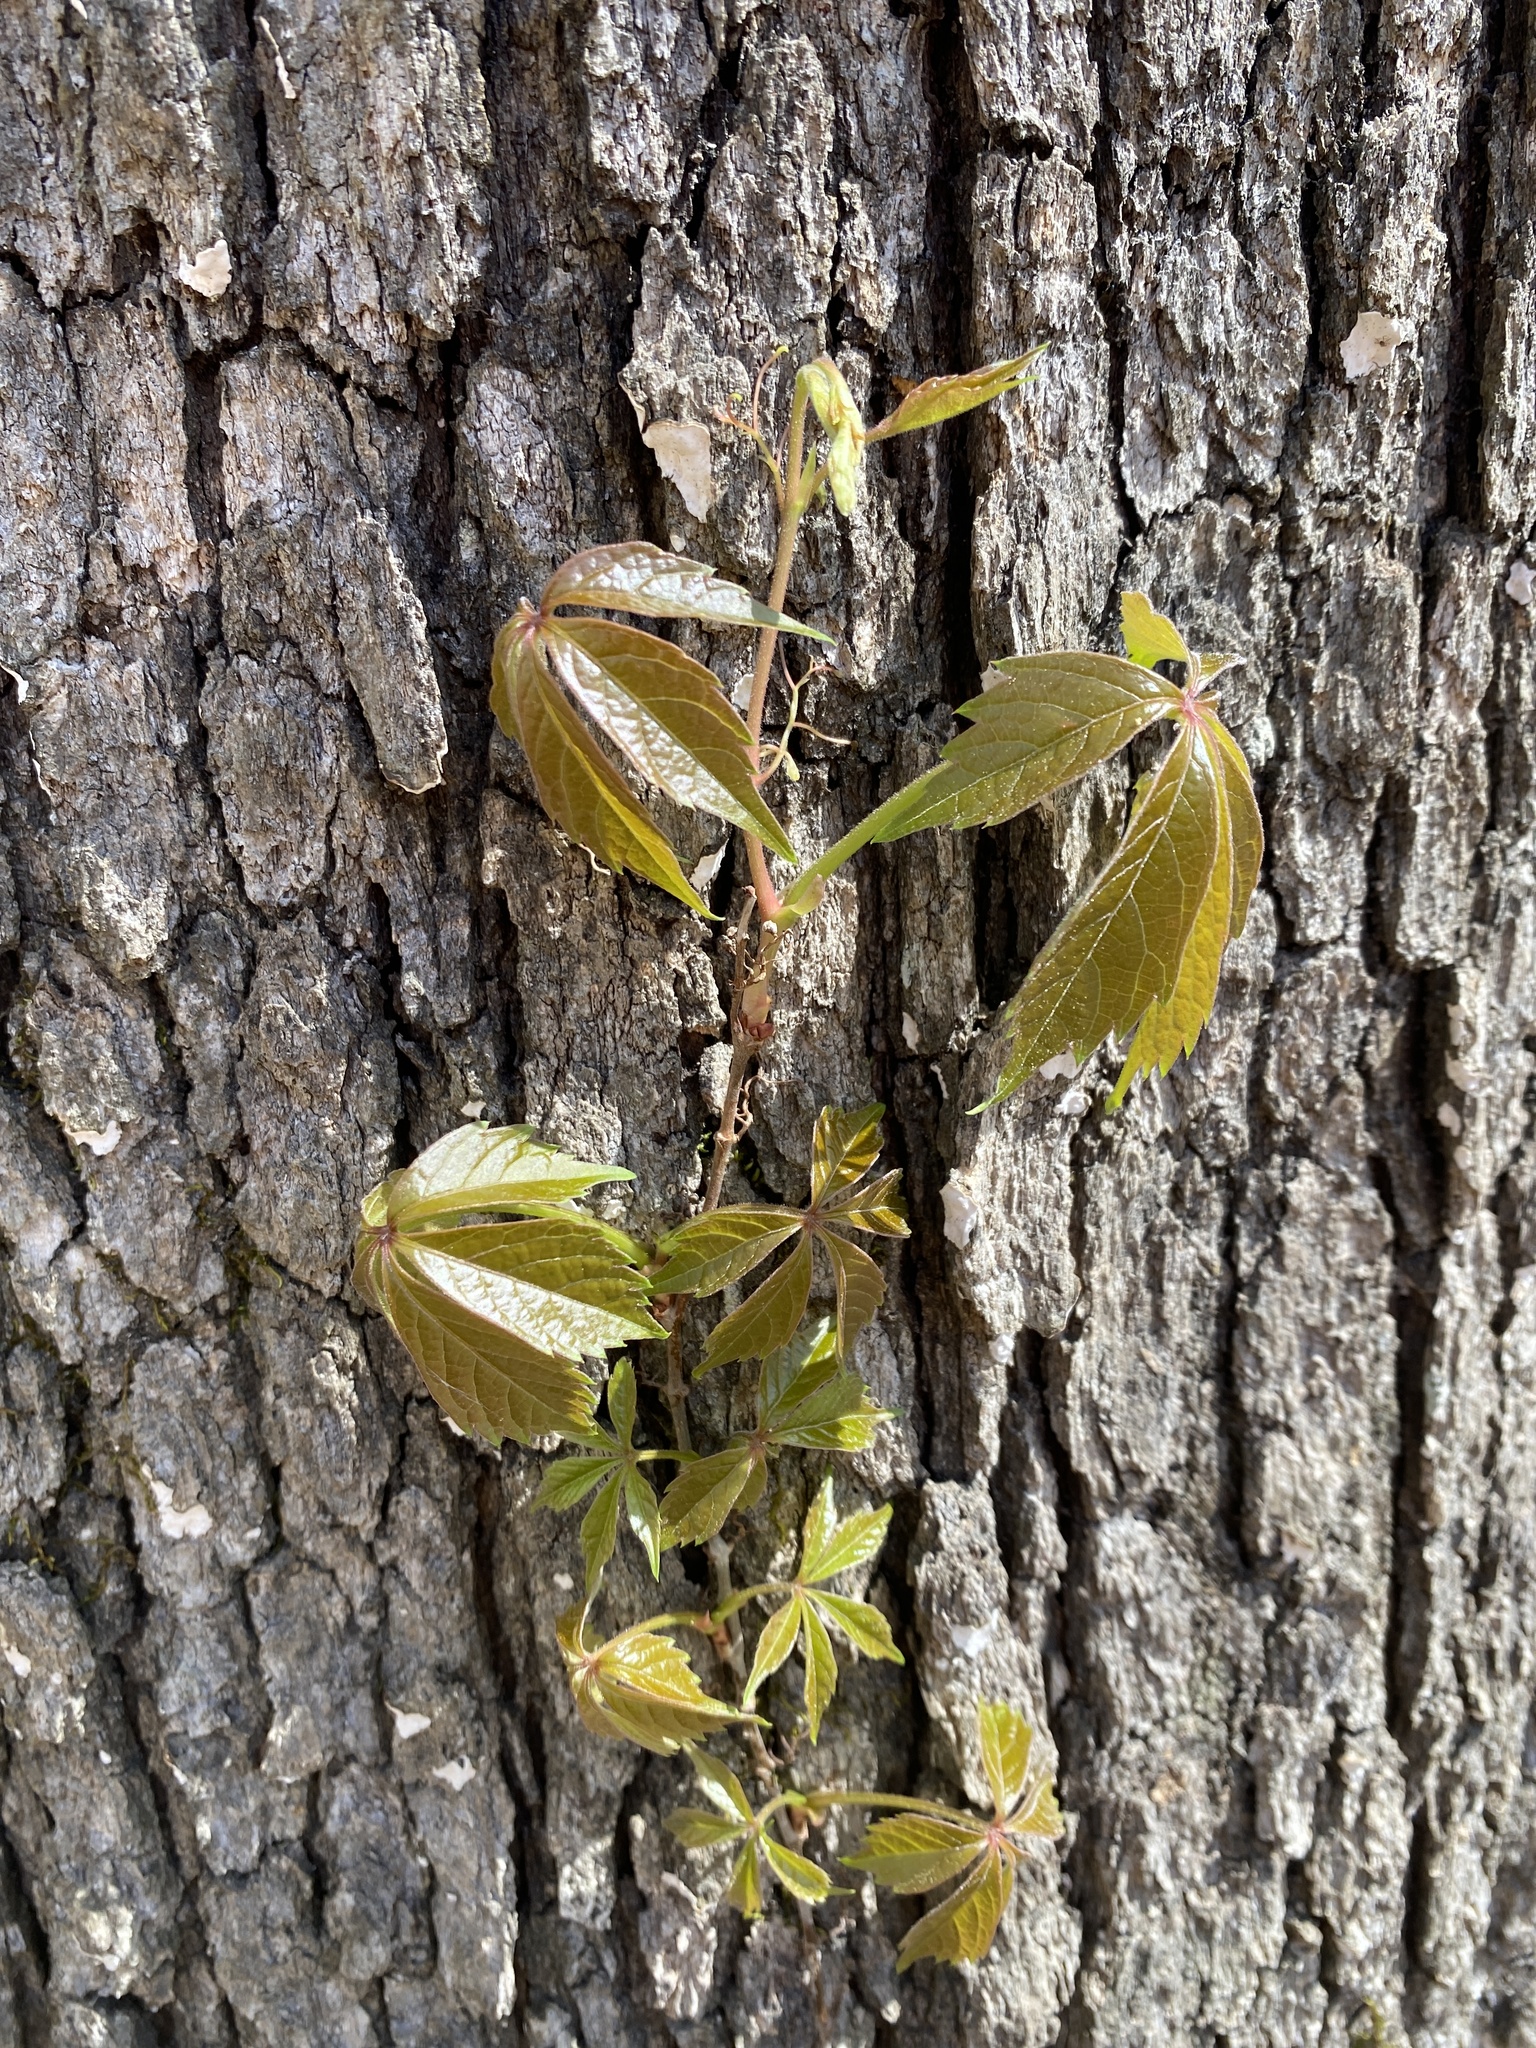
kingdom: Plantae
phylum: Tracheophyta
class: Magnoliopsida
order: Vitales
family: Vitaceae
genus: Parthenocissus
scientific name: Parthenocissus quinquefolia
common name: Virginia-creeper
